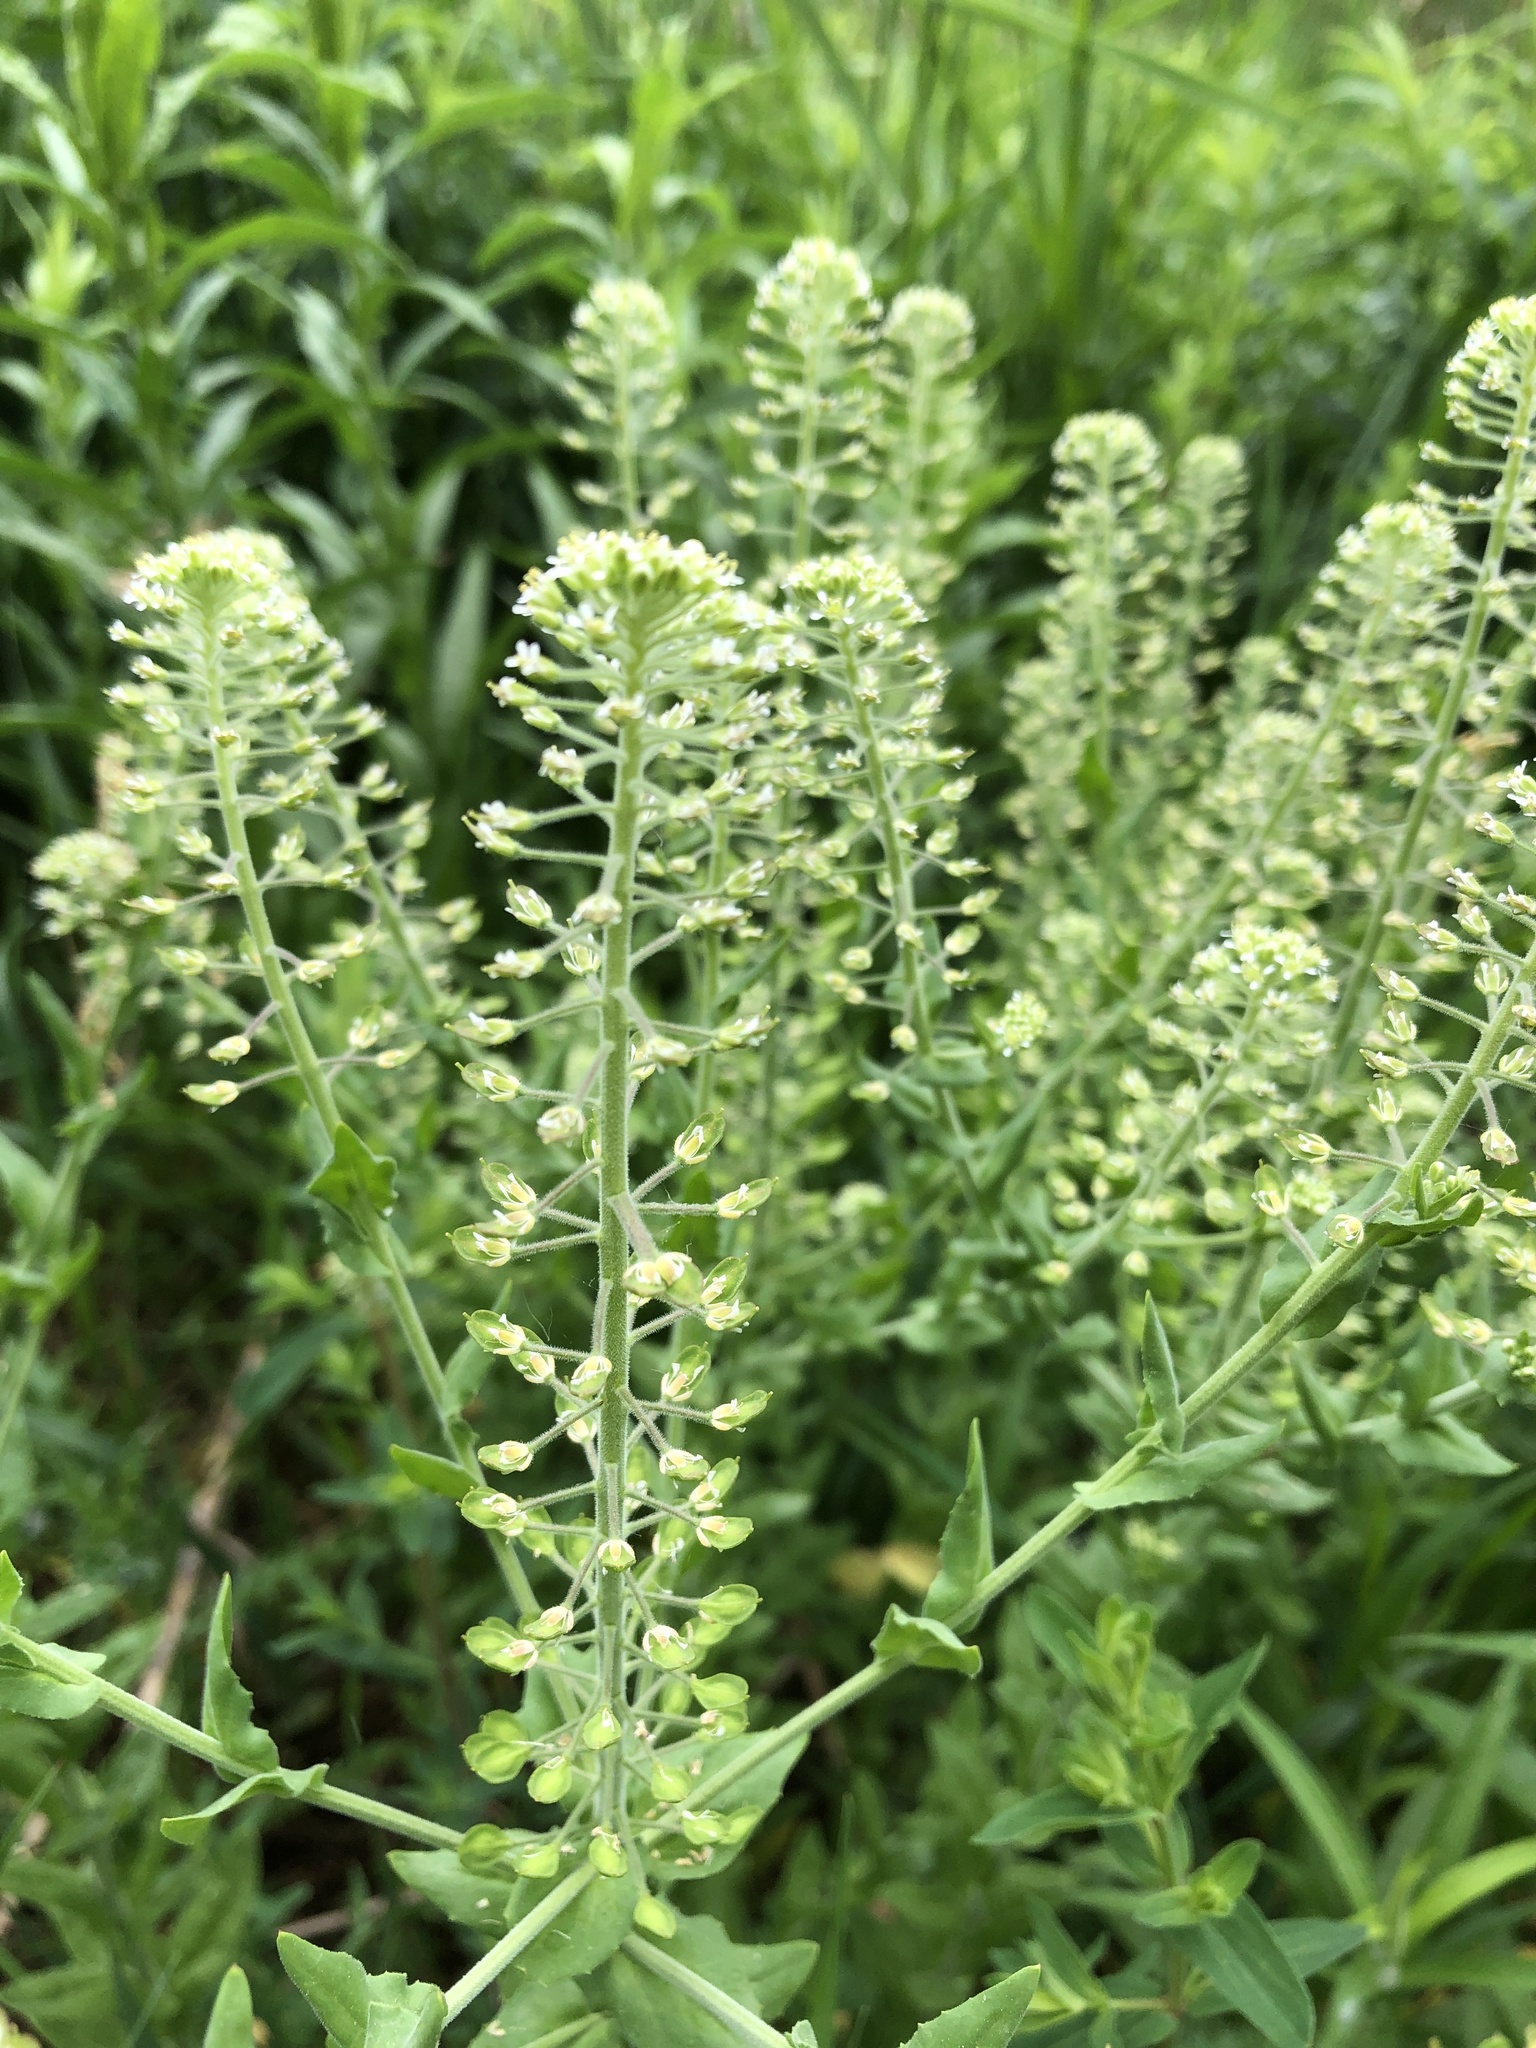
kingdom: Plantae
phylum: Tracheophyta
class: Magnoliopsida
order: Brassicales
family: Brassicaceae
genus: Lepidium
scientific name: Lepidium campestre
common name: Field pepperwort
